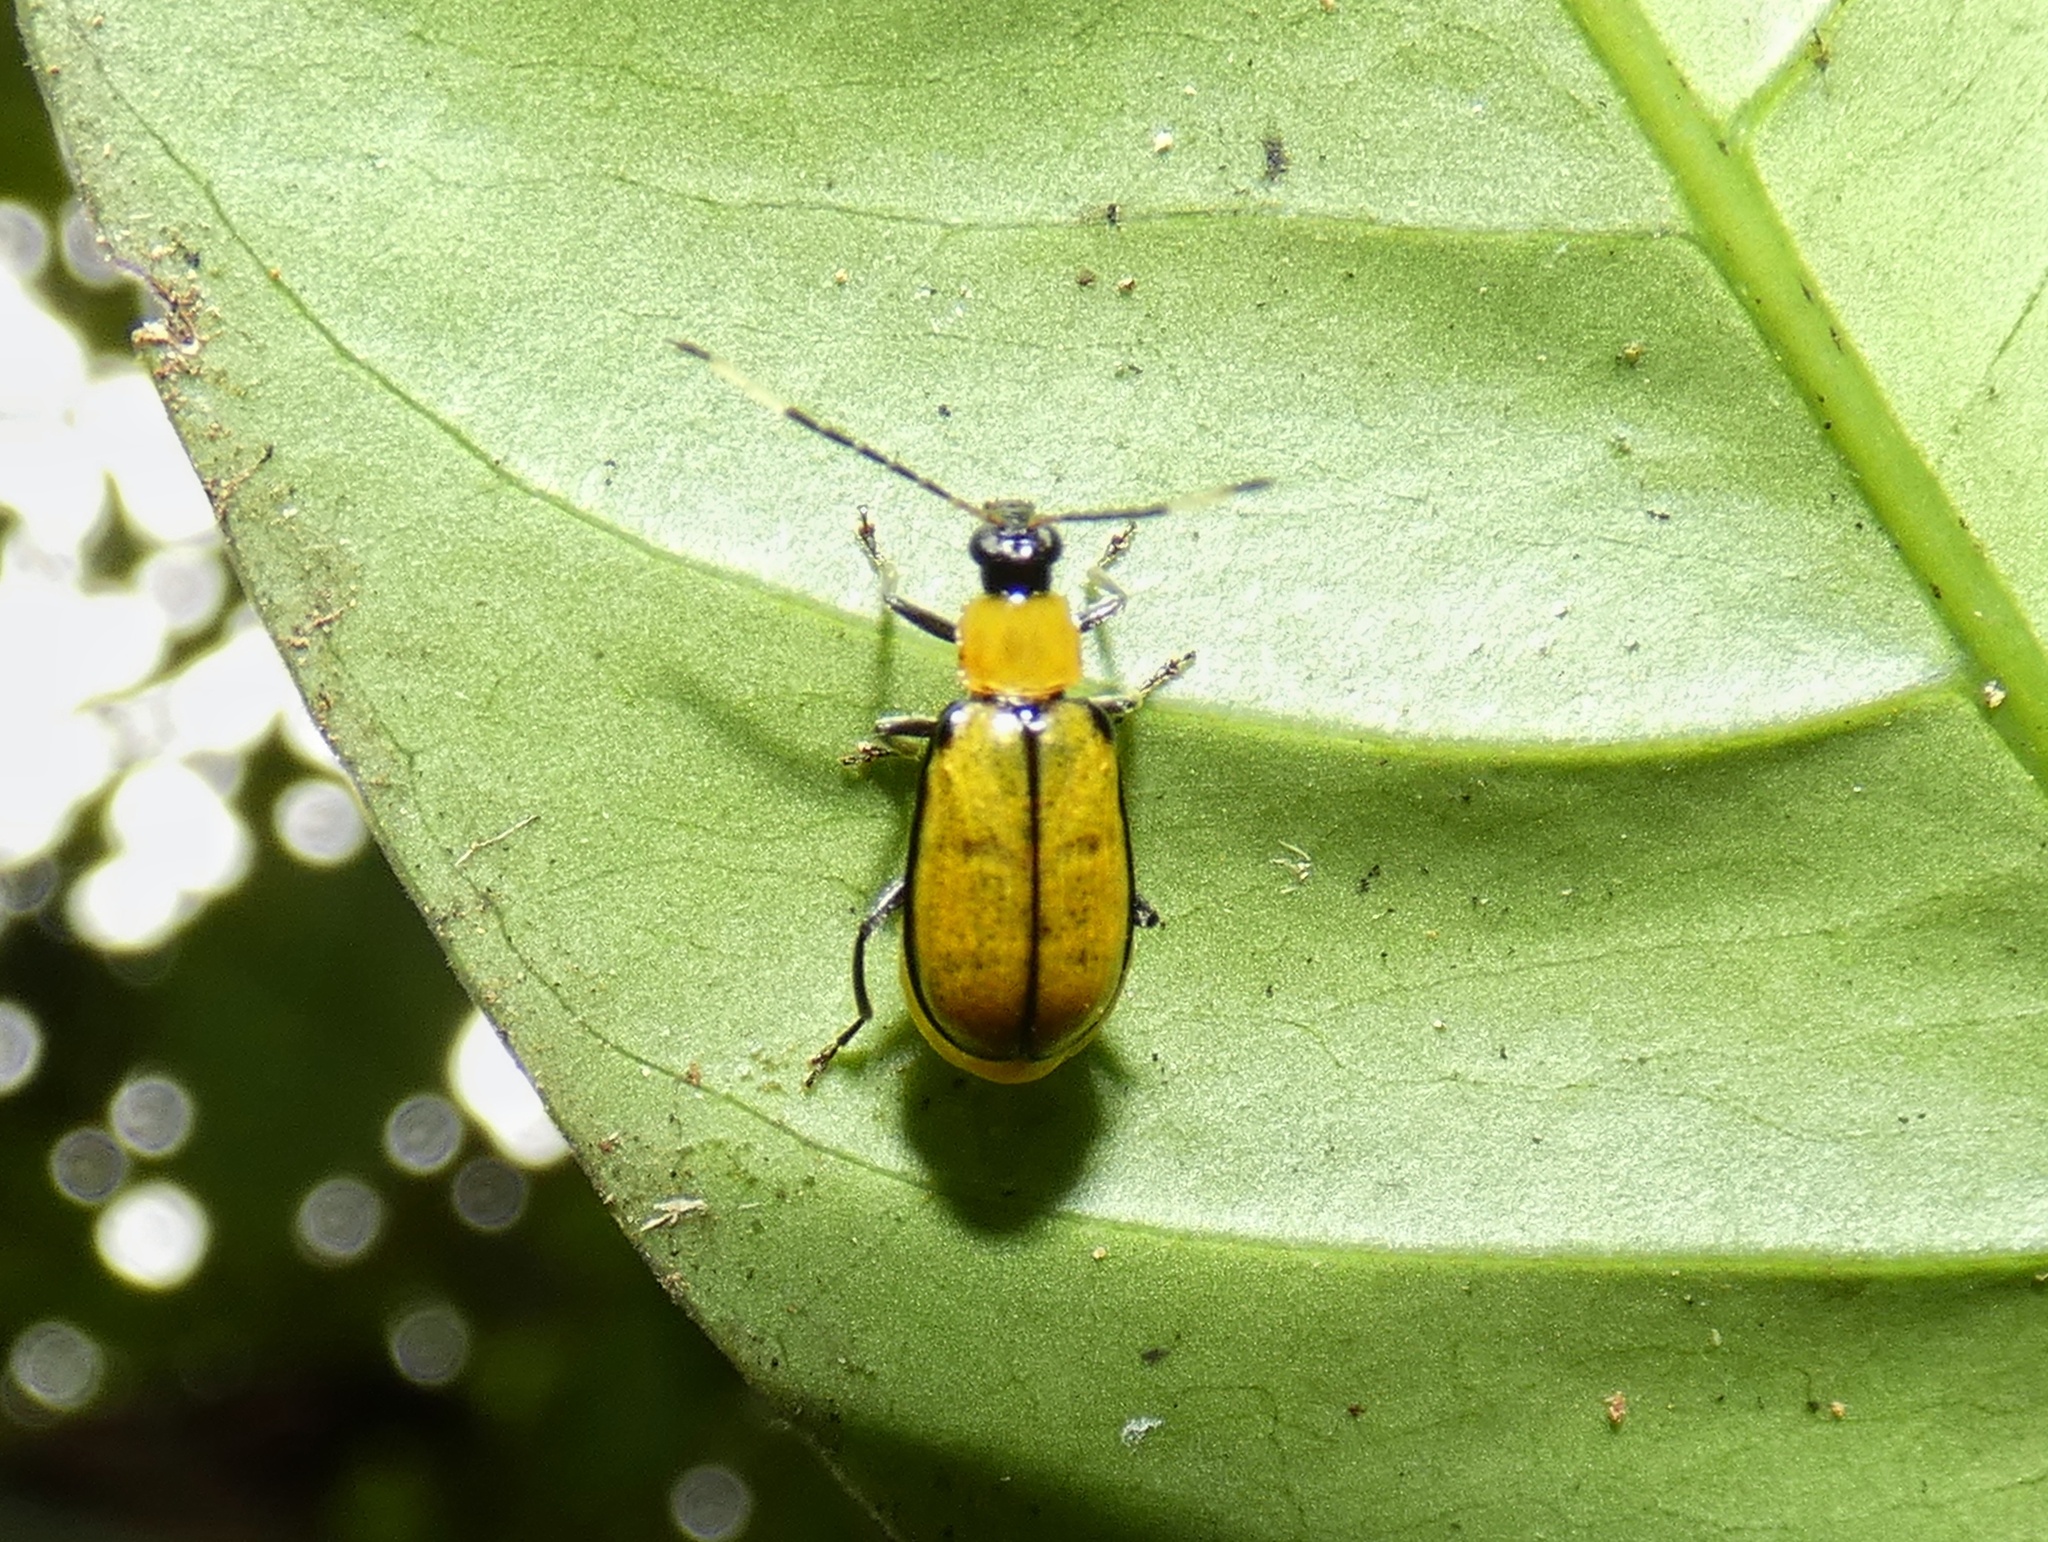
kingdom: Animalia
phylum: Arthropoda
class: Insecta
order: Coleoptera
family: Chrysomelidae
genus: Diabrotica
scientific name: Diabrotica
